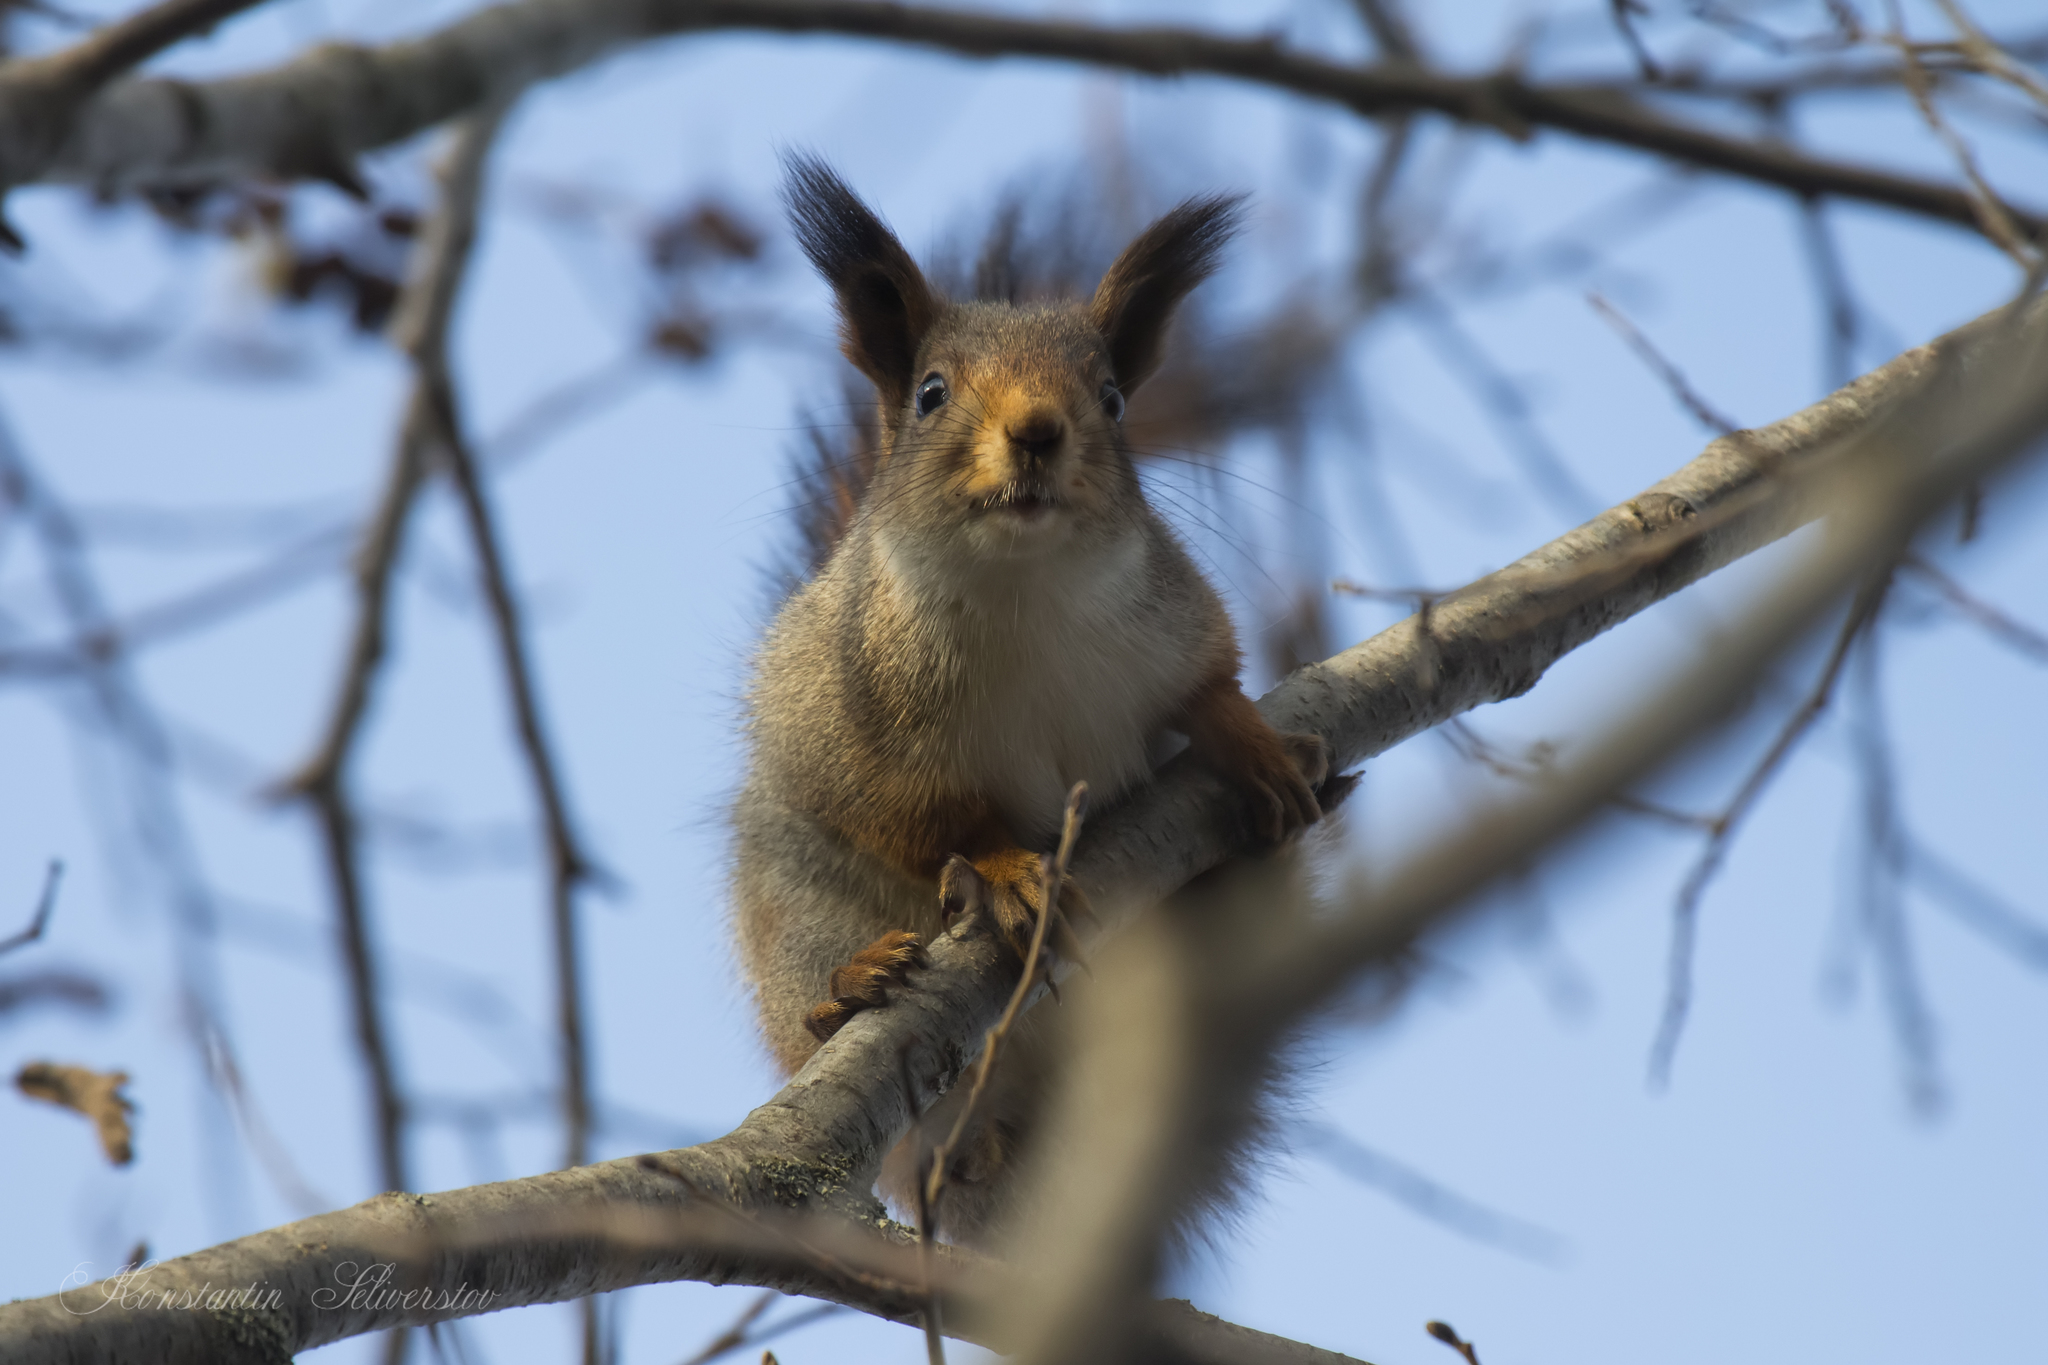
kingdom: Animalia
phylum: Chordata
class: Mammalia
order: Rodentia
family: Sciuridae
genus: Sciurus
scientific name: Sciurus vulgaris
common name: Eurasian red squirrel
